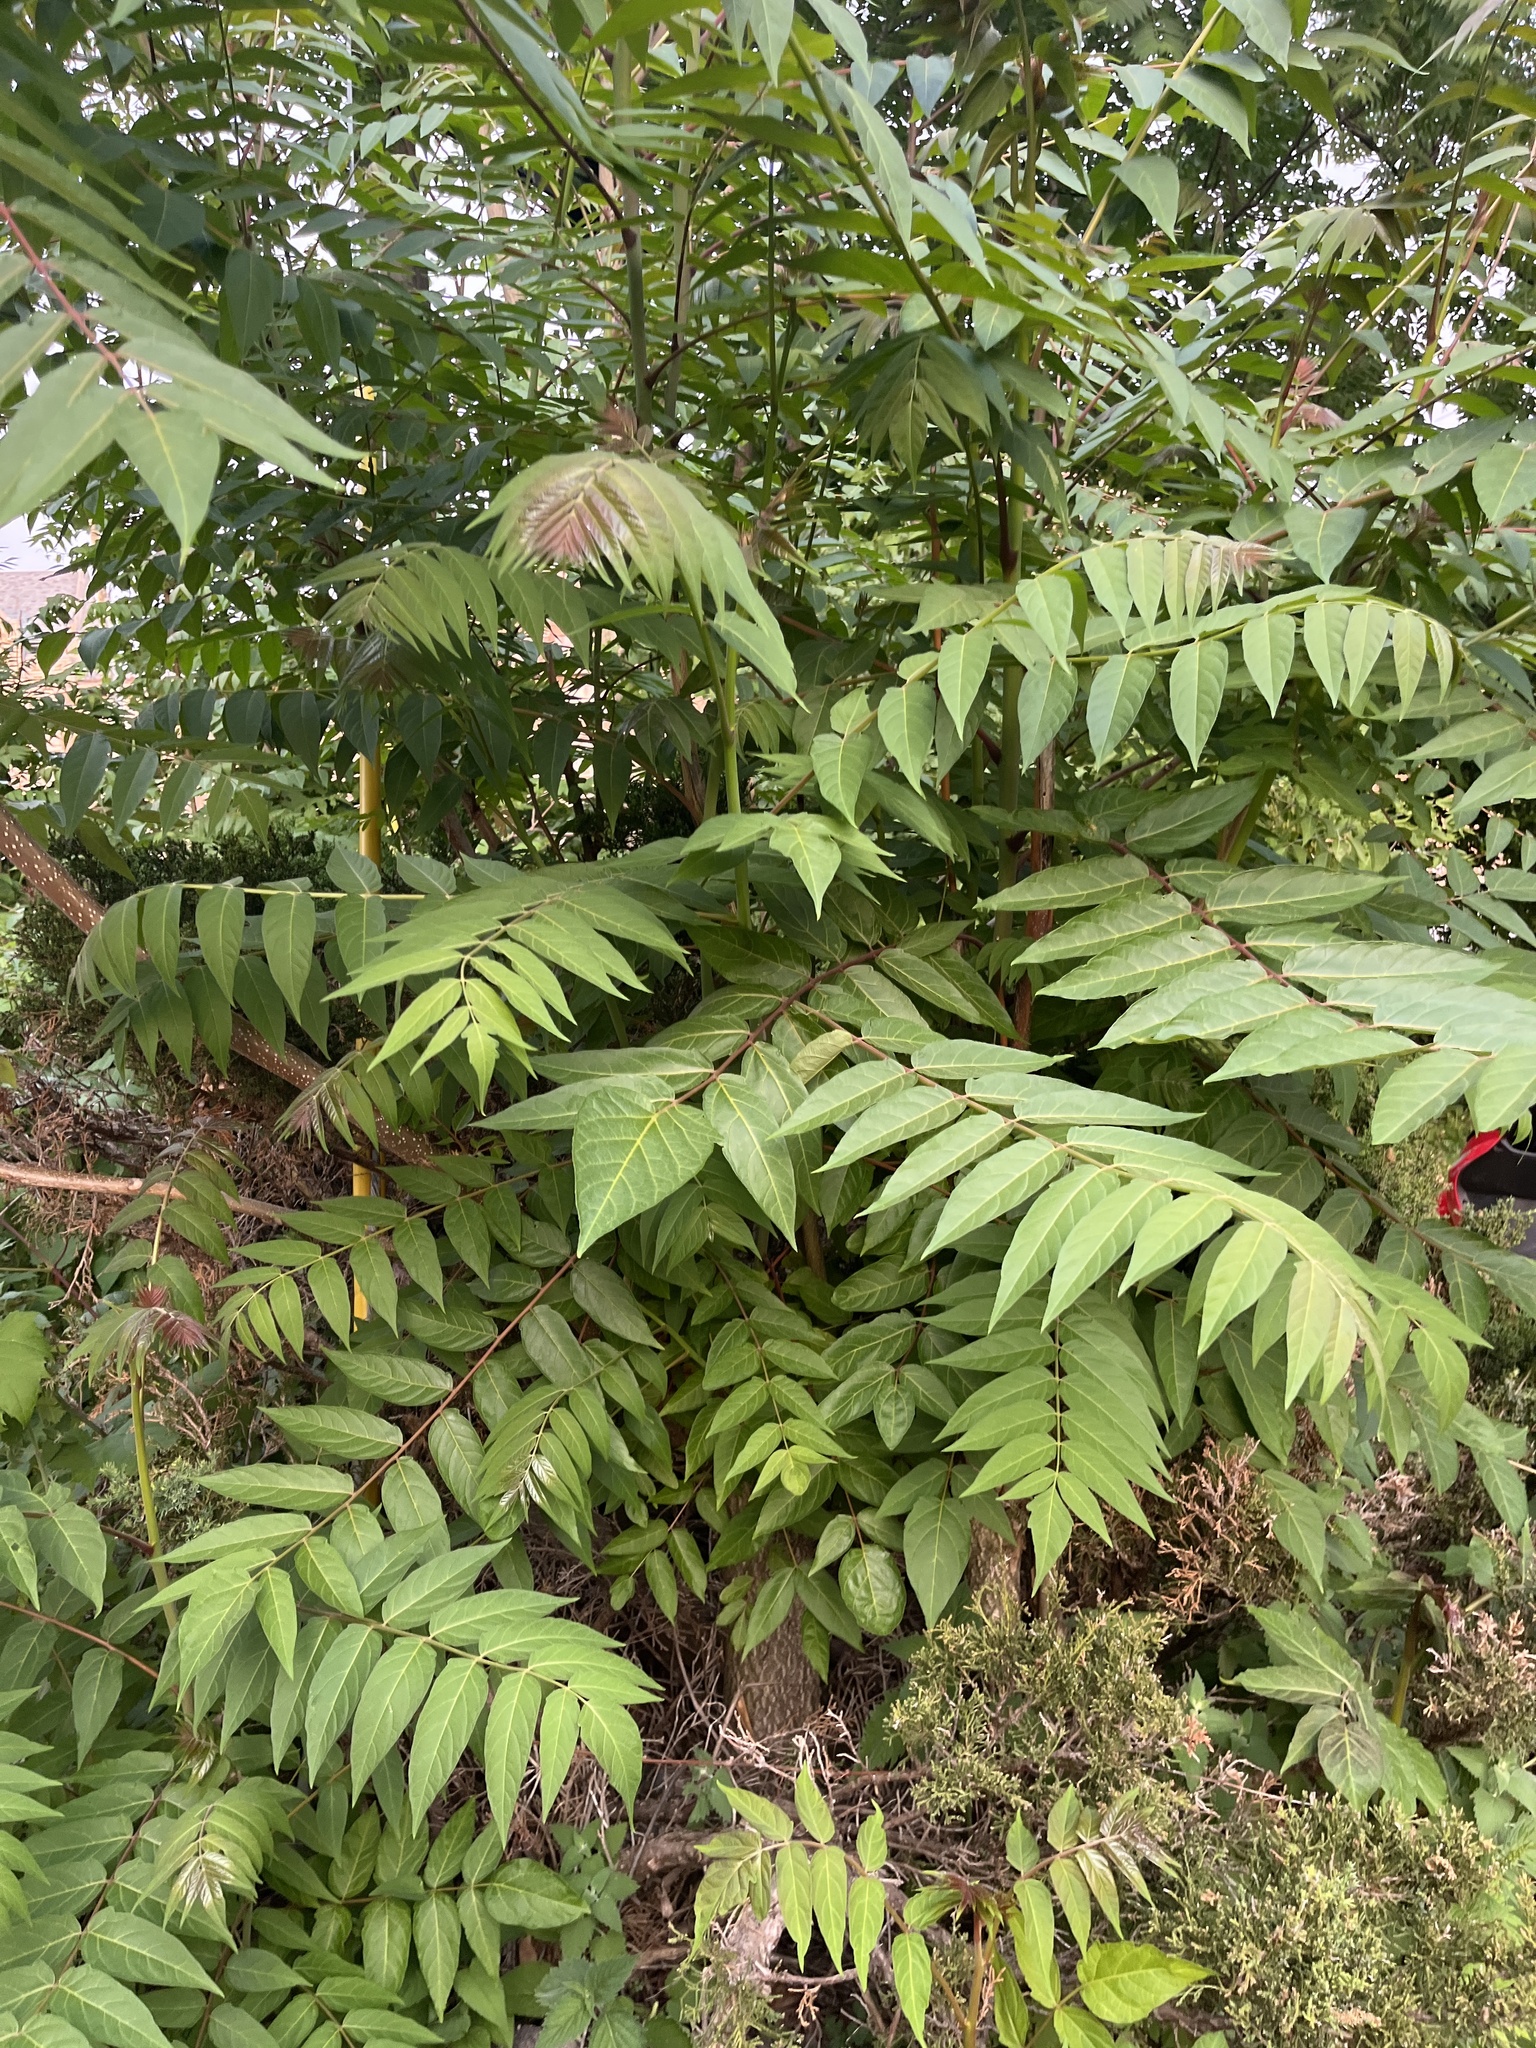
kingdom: Plantae
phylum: Tracheophyta
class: Magnoliopsida
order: Sapindales
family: Simaroubaceae
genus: Ailanthus
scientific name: Ailanthus altissima
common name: Tree-of-heaven
